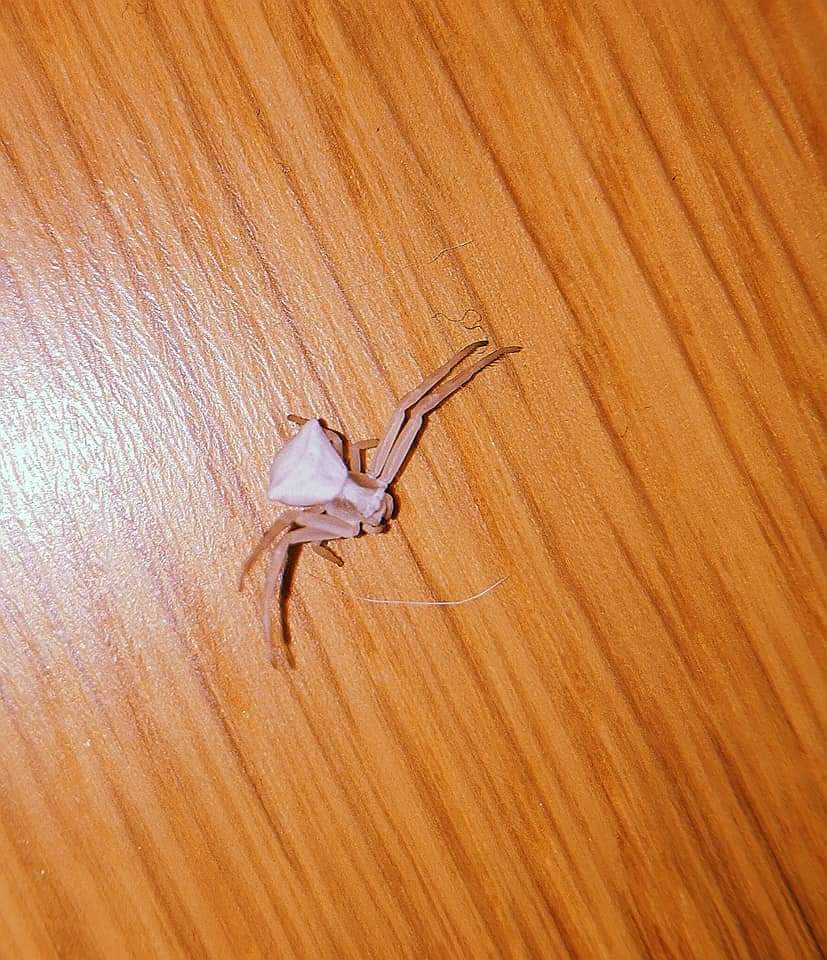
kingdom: Animalia
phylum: Arthropoda
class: Arachnida
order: Araneae
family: Thomisidae
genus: Thomisus
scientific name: Thomisus onustus
